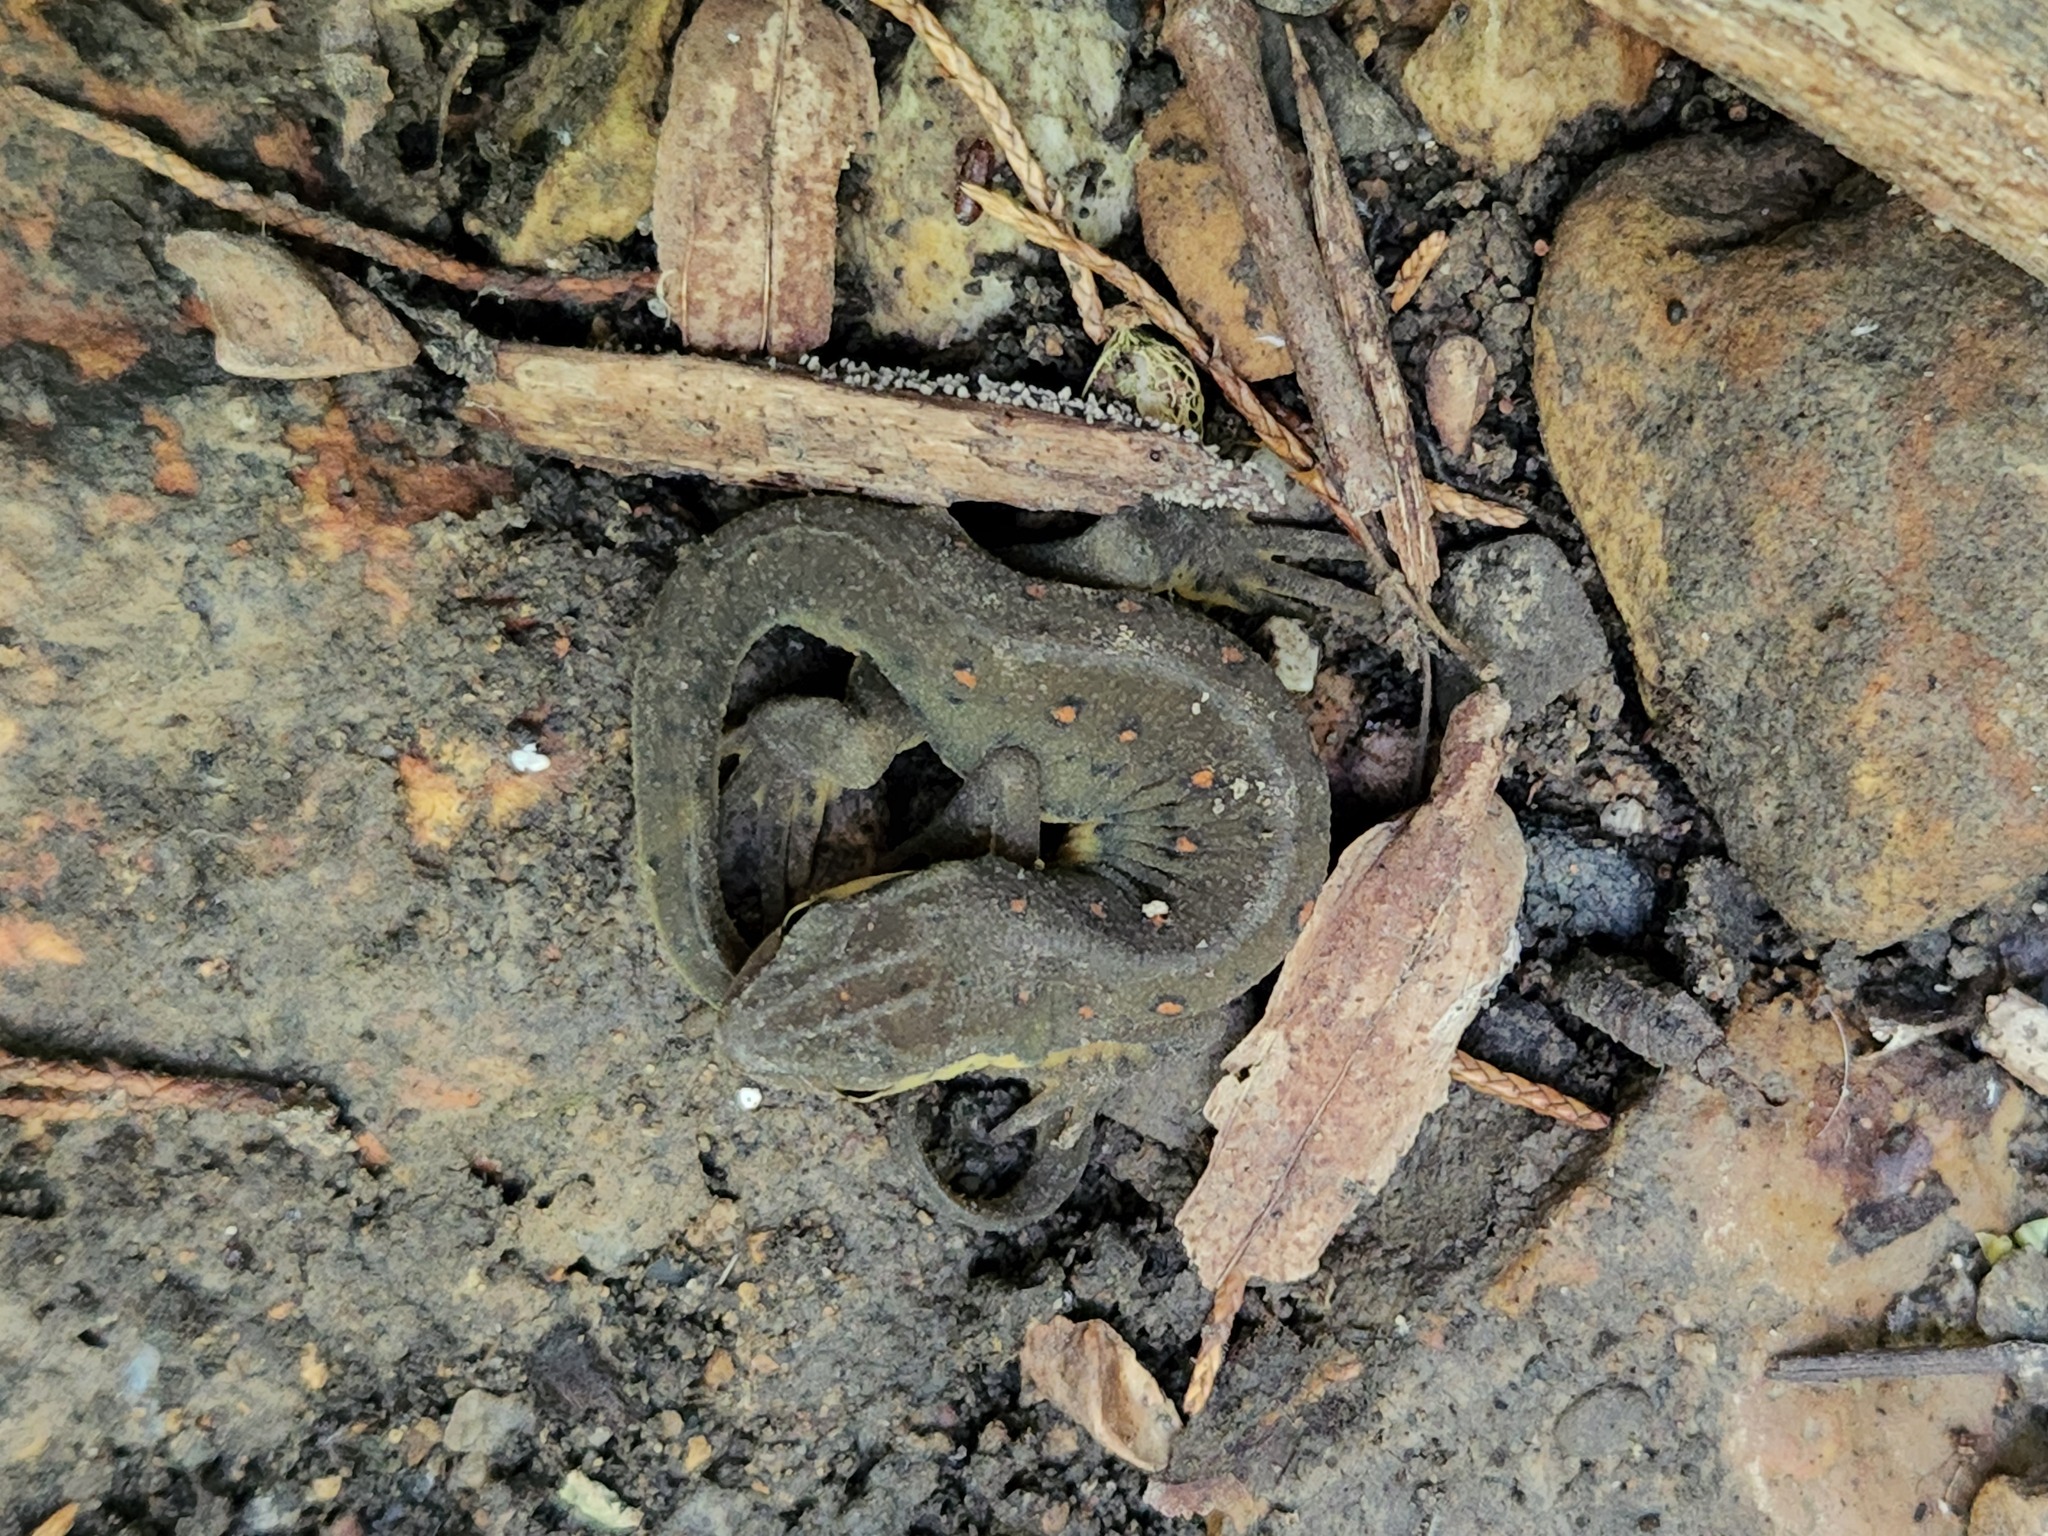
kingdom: Animalia
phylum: Chordata
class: Amphibia
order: Caudata
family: Salamandridae
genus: Notophthalmus
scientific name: Notophthalmus viridescens
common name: Eastern newt
